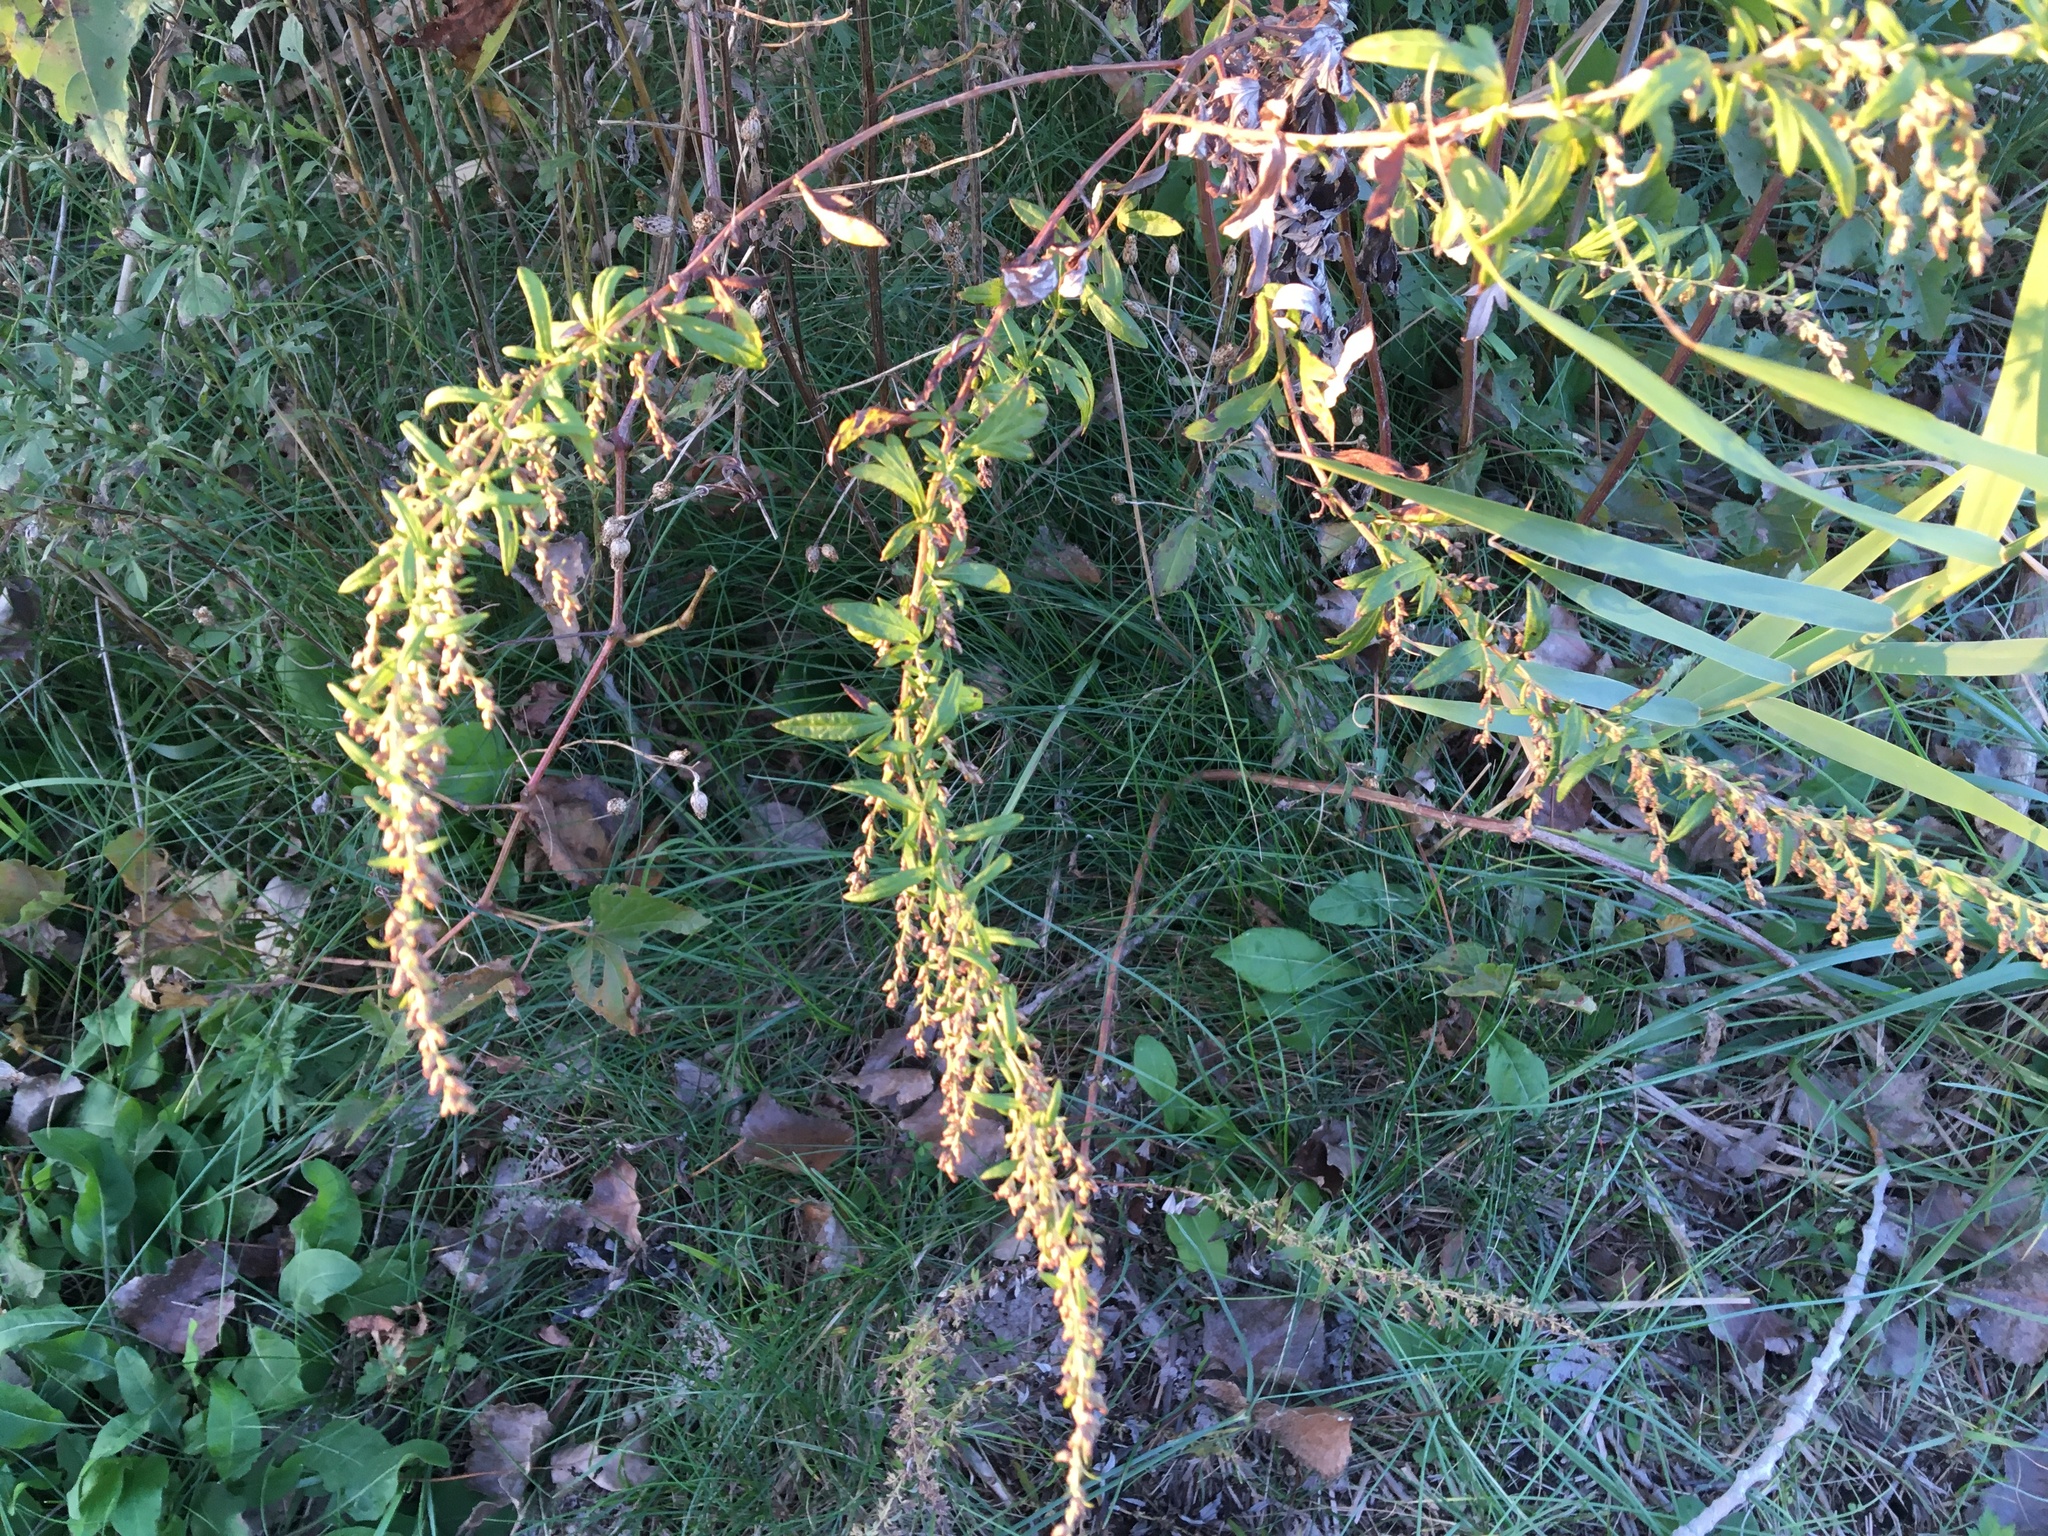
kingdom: Plantae
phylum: Tracheophyta
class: Magnoliopsida
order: Asterales
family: Asteraceae
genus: Artemisia
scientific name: Artemisia vulgaris
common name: Mugwort
